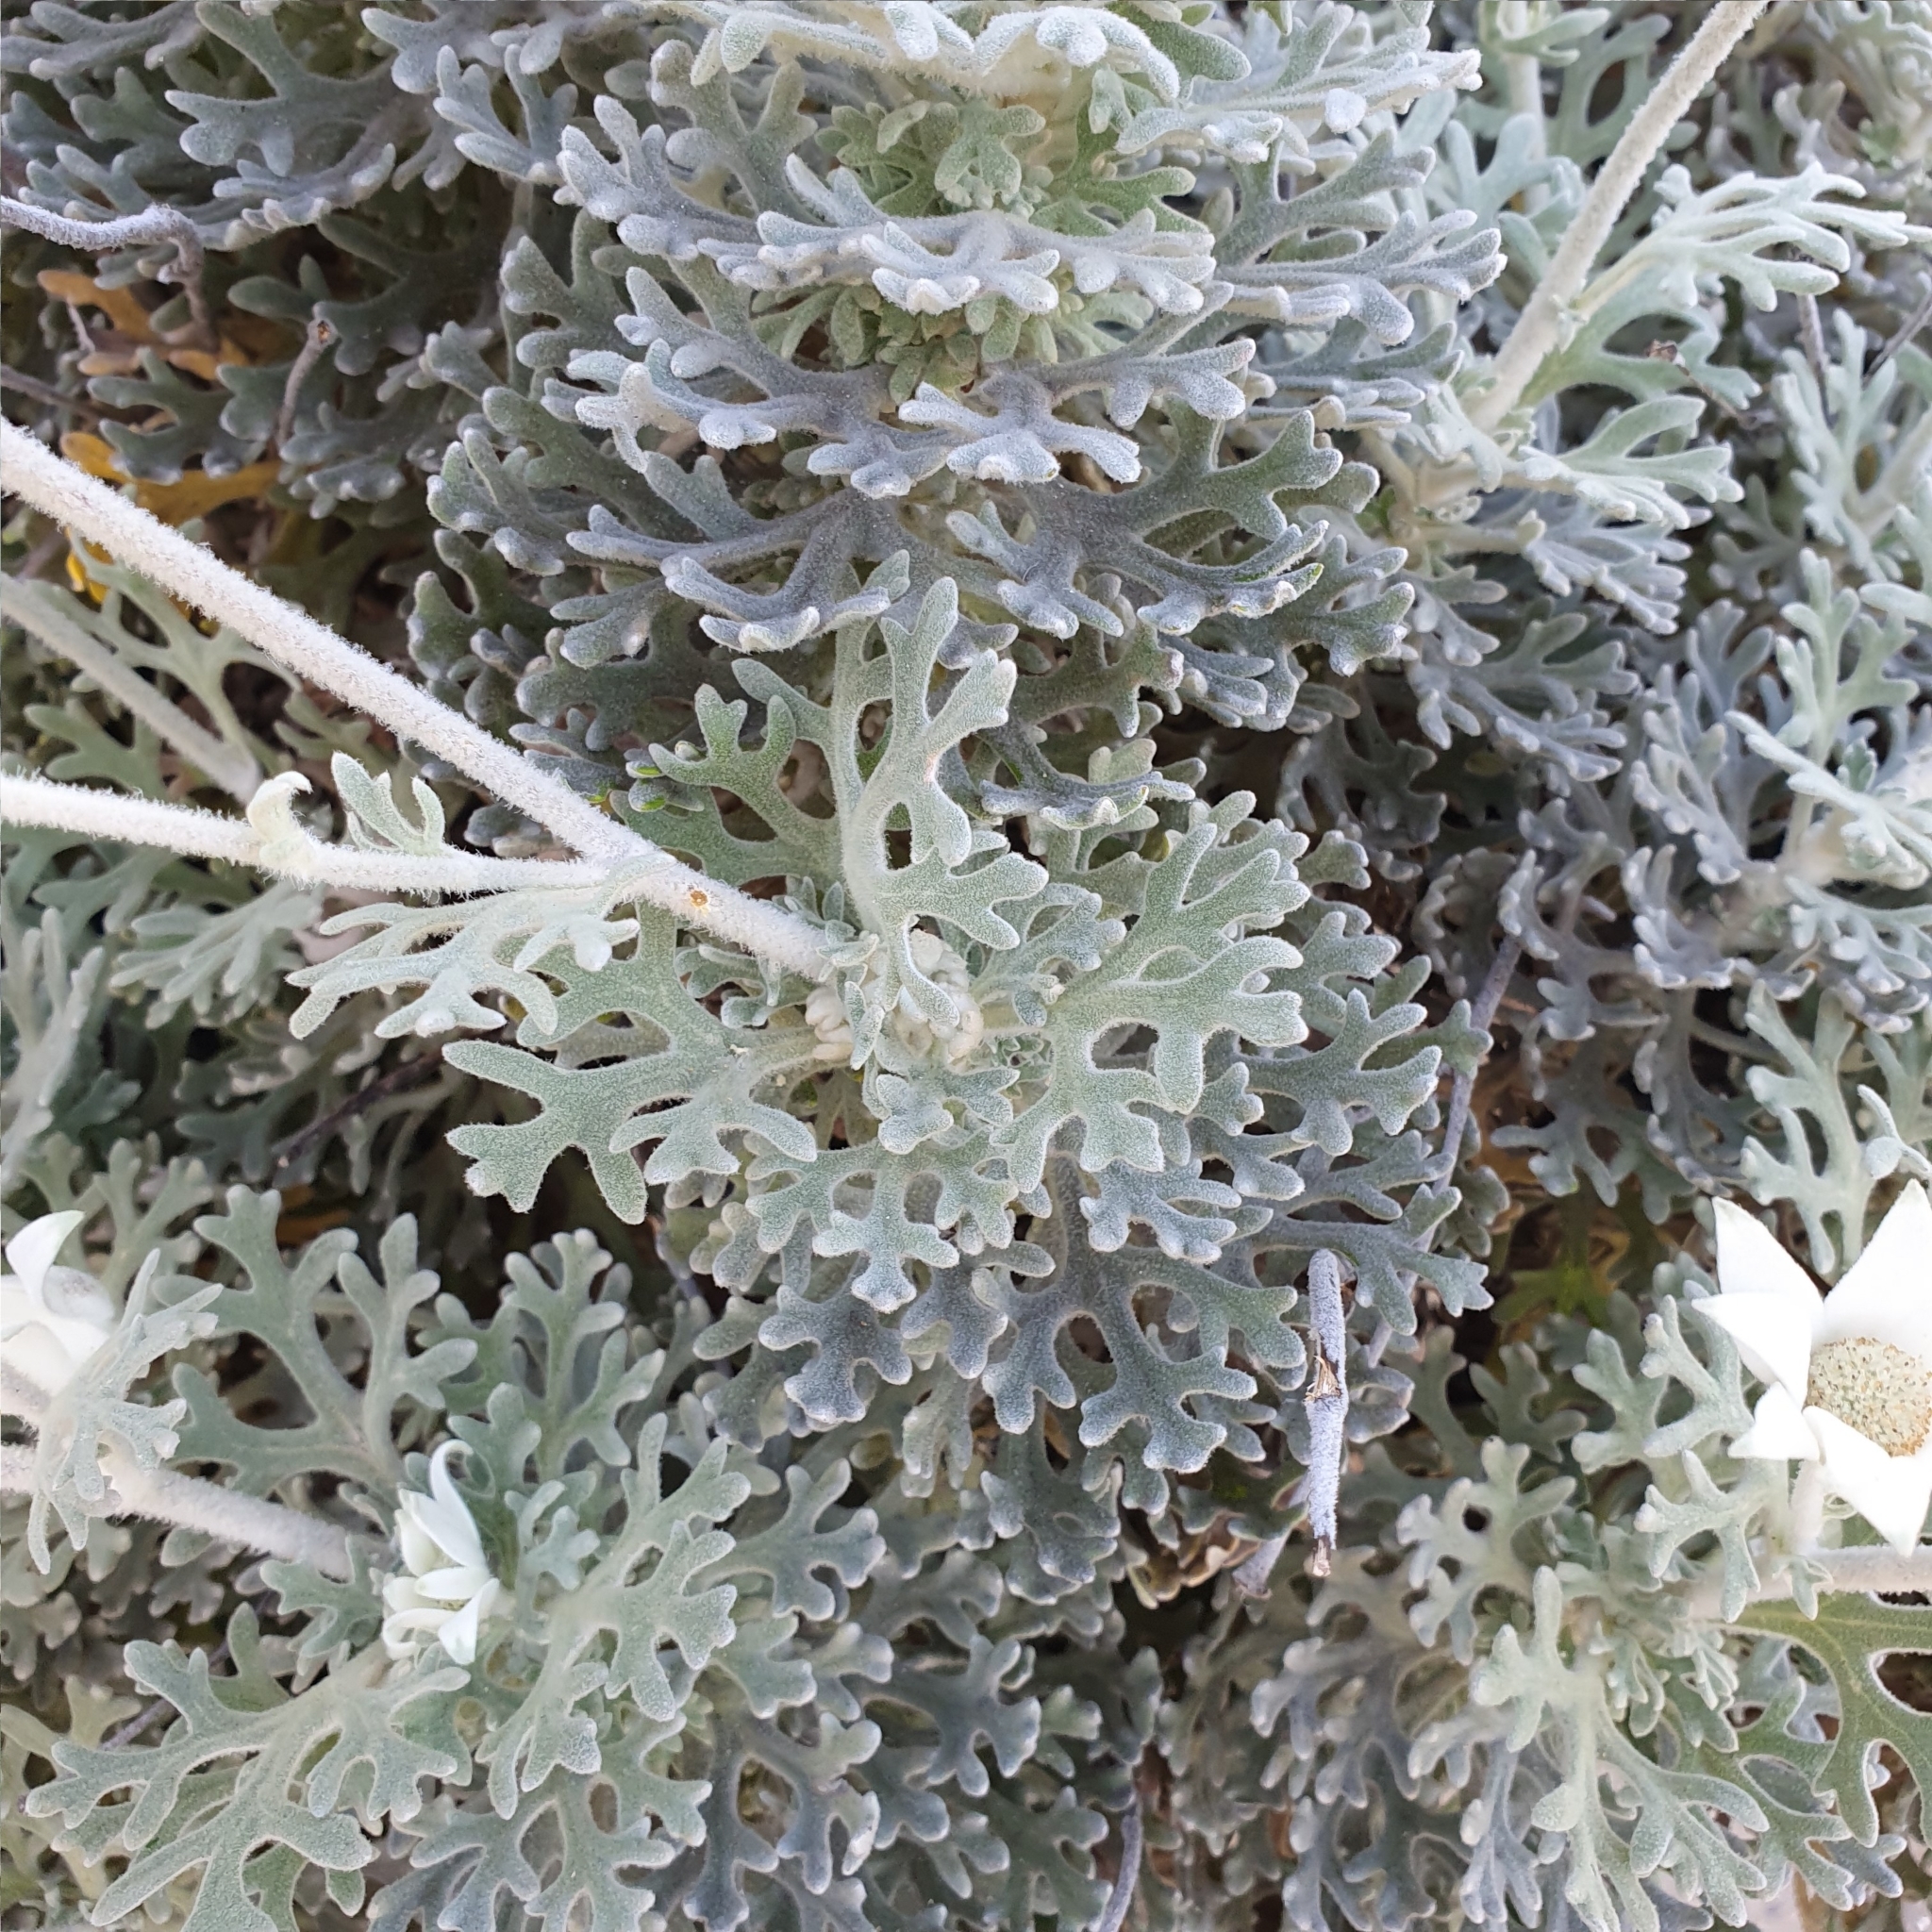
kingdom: Plantae
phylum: Tracheophyta
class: Magnoliopsida
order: Apiales
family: Apiaceae
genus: Actinotus
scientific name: Actinotus helianthi
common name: Flannel-flower
